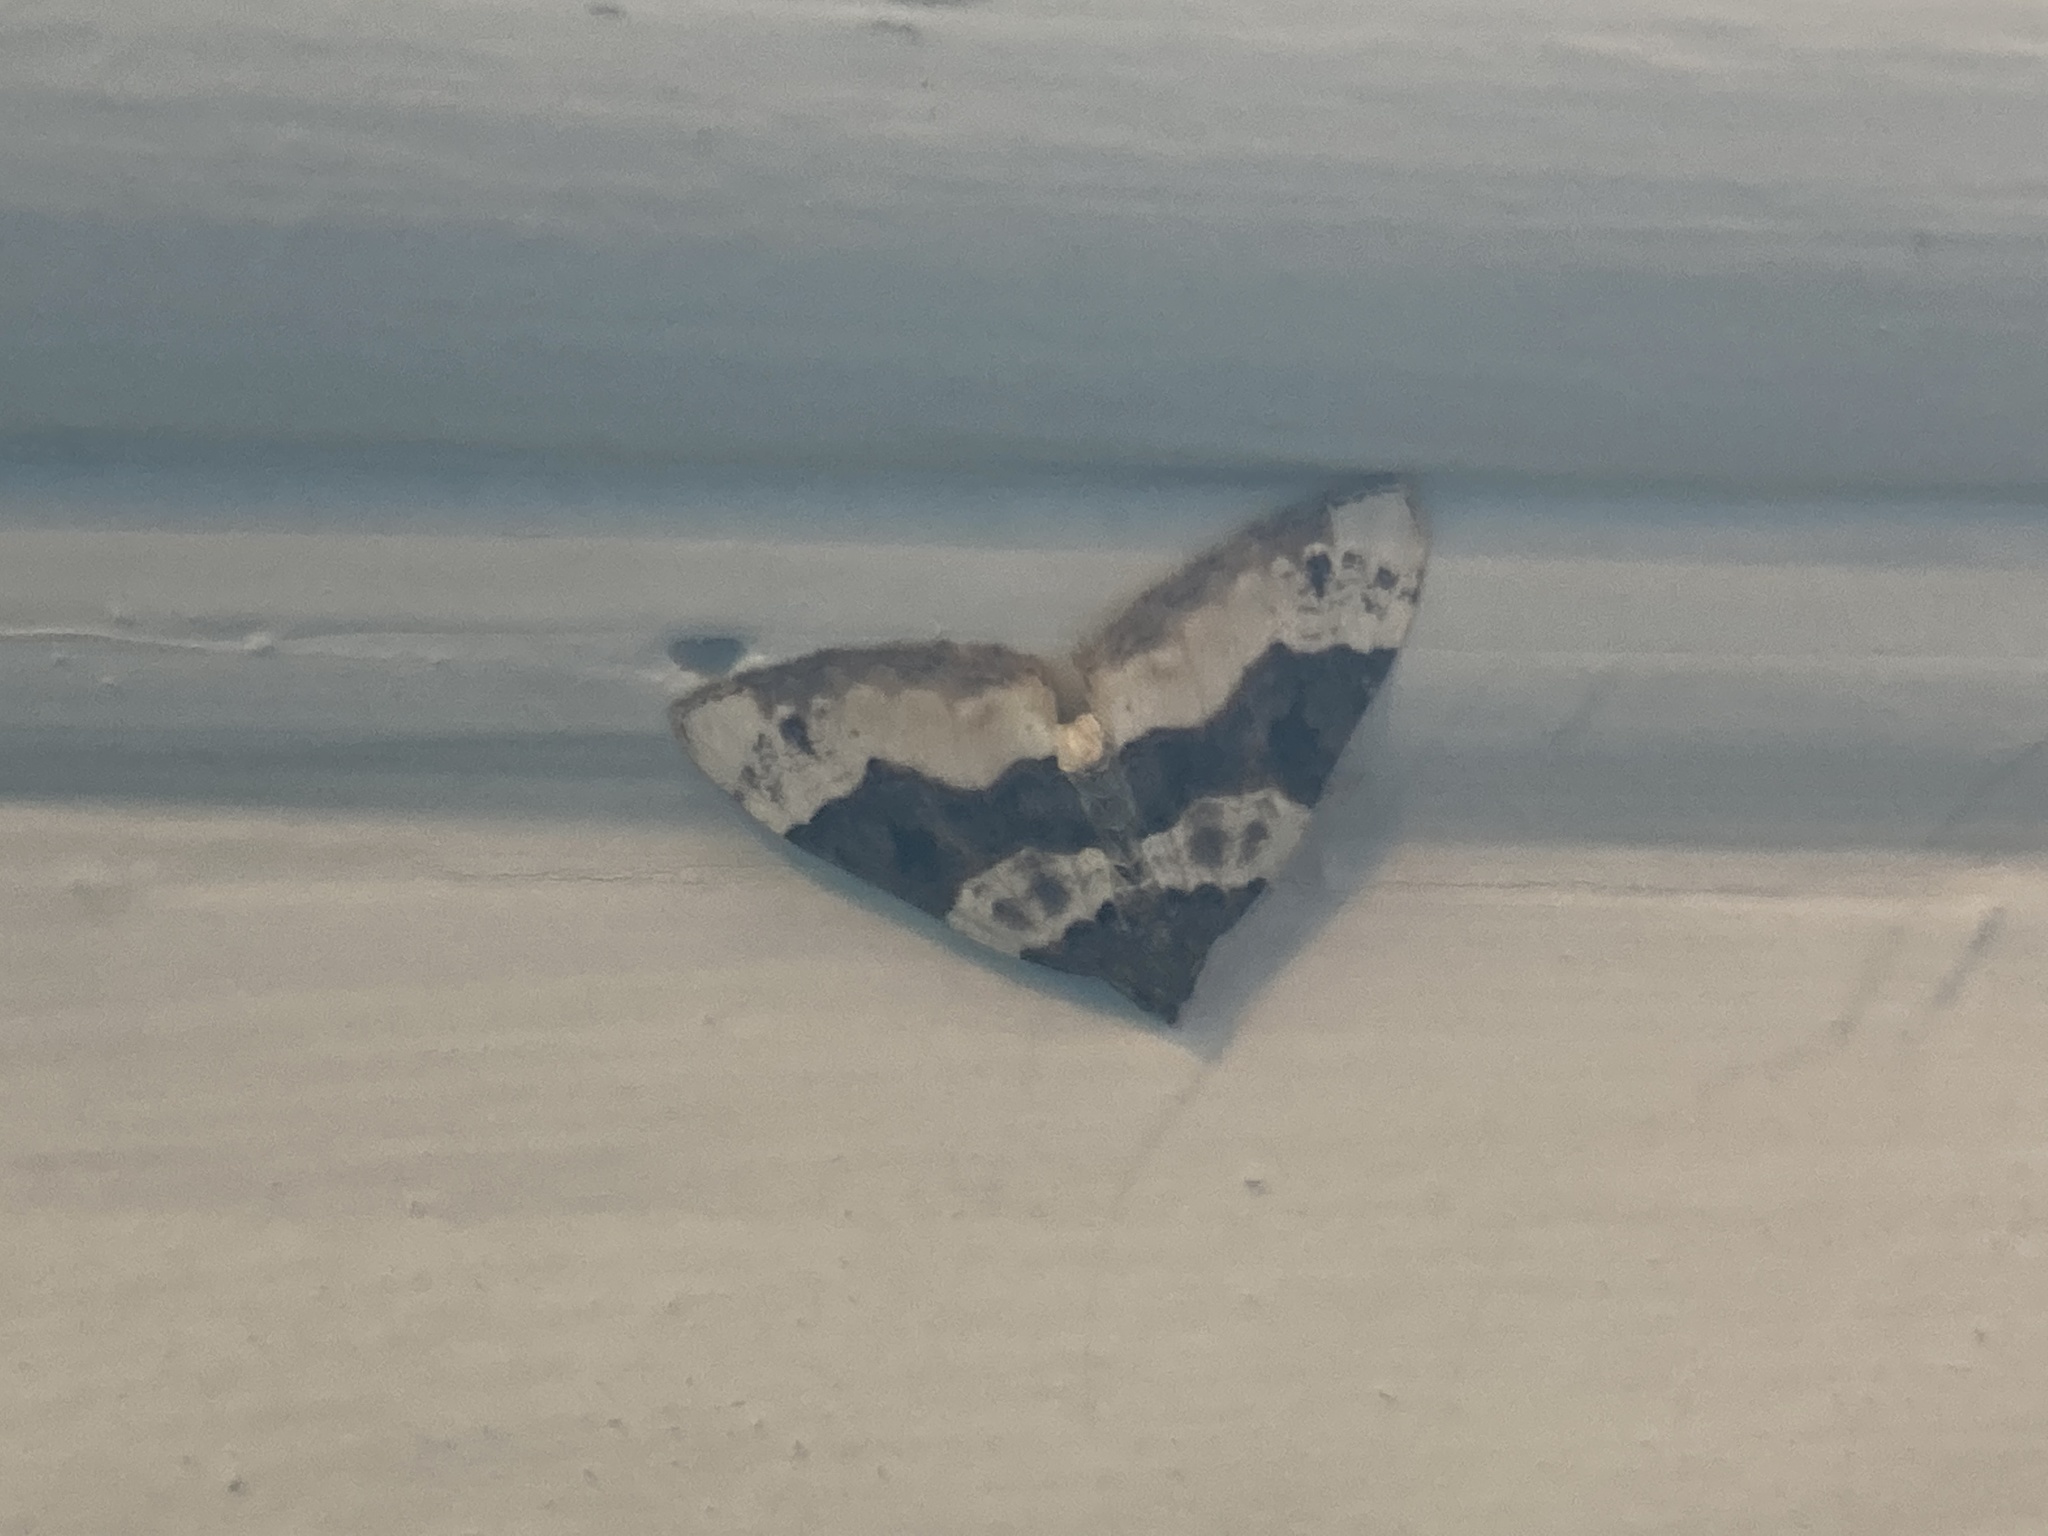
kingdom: Animalia
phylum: Arthropoda
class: Insecta
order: Lepidoptera
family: Geometridae
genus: Cosmorhoe
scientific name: Cosmorhoe ocellata
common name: Purple bar
